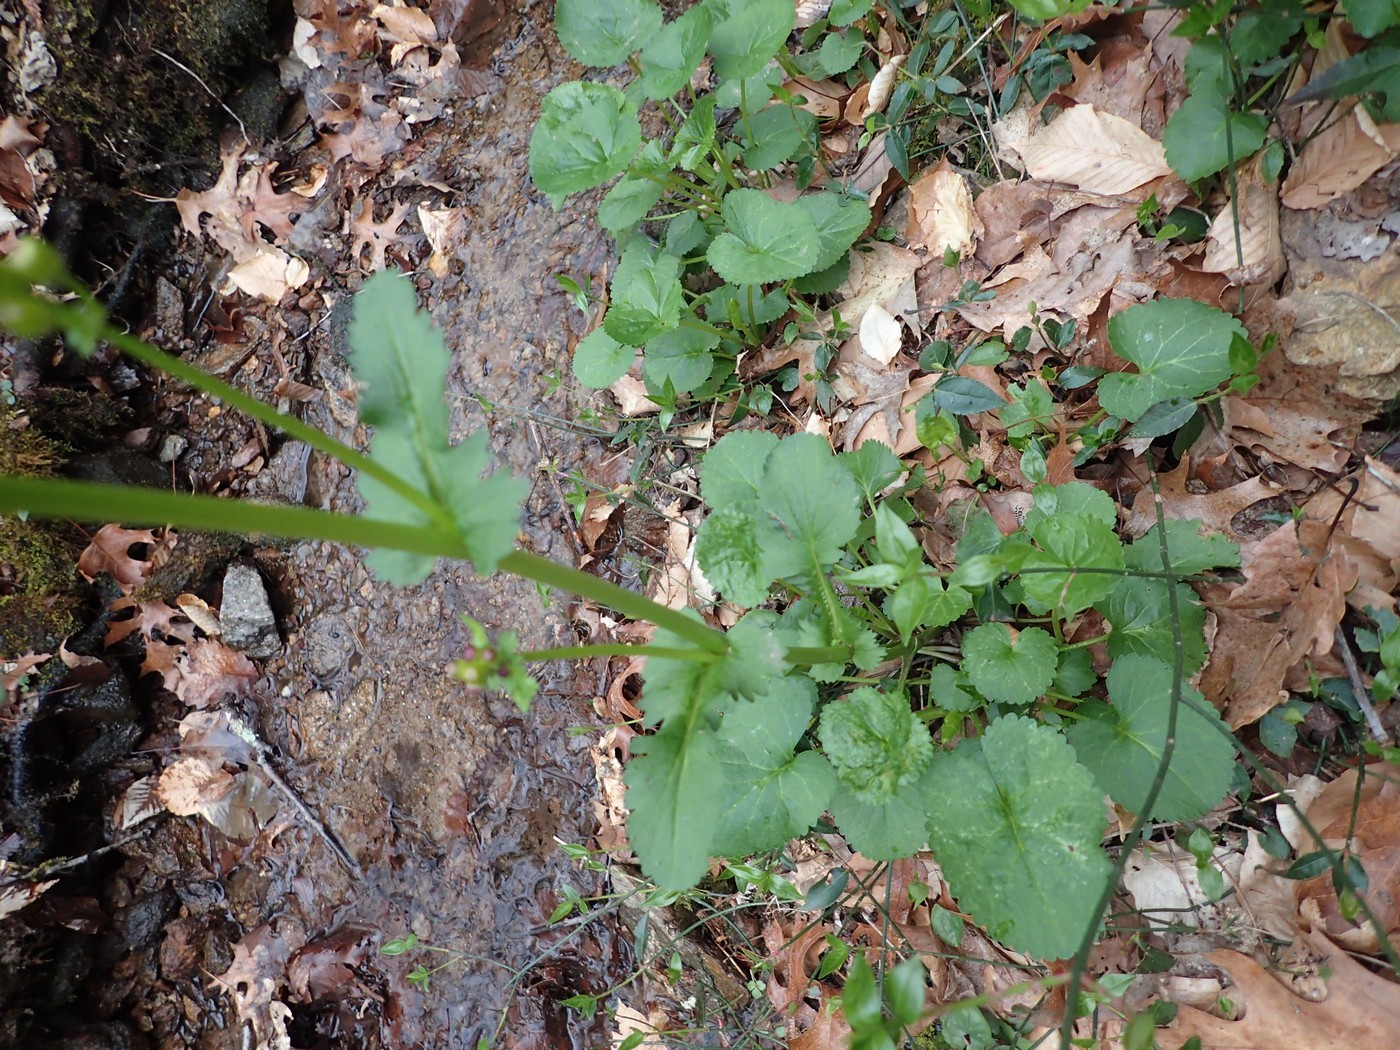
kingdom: Plantae
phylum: Tracheophyta
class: Magnoliopsida
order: Asterales
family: Asteraceae
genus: Packera
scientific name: Packera aurea
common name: Golden groundsel
